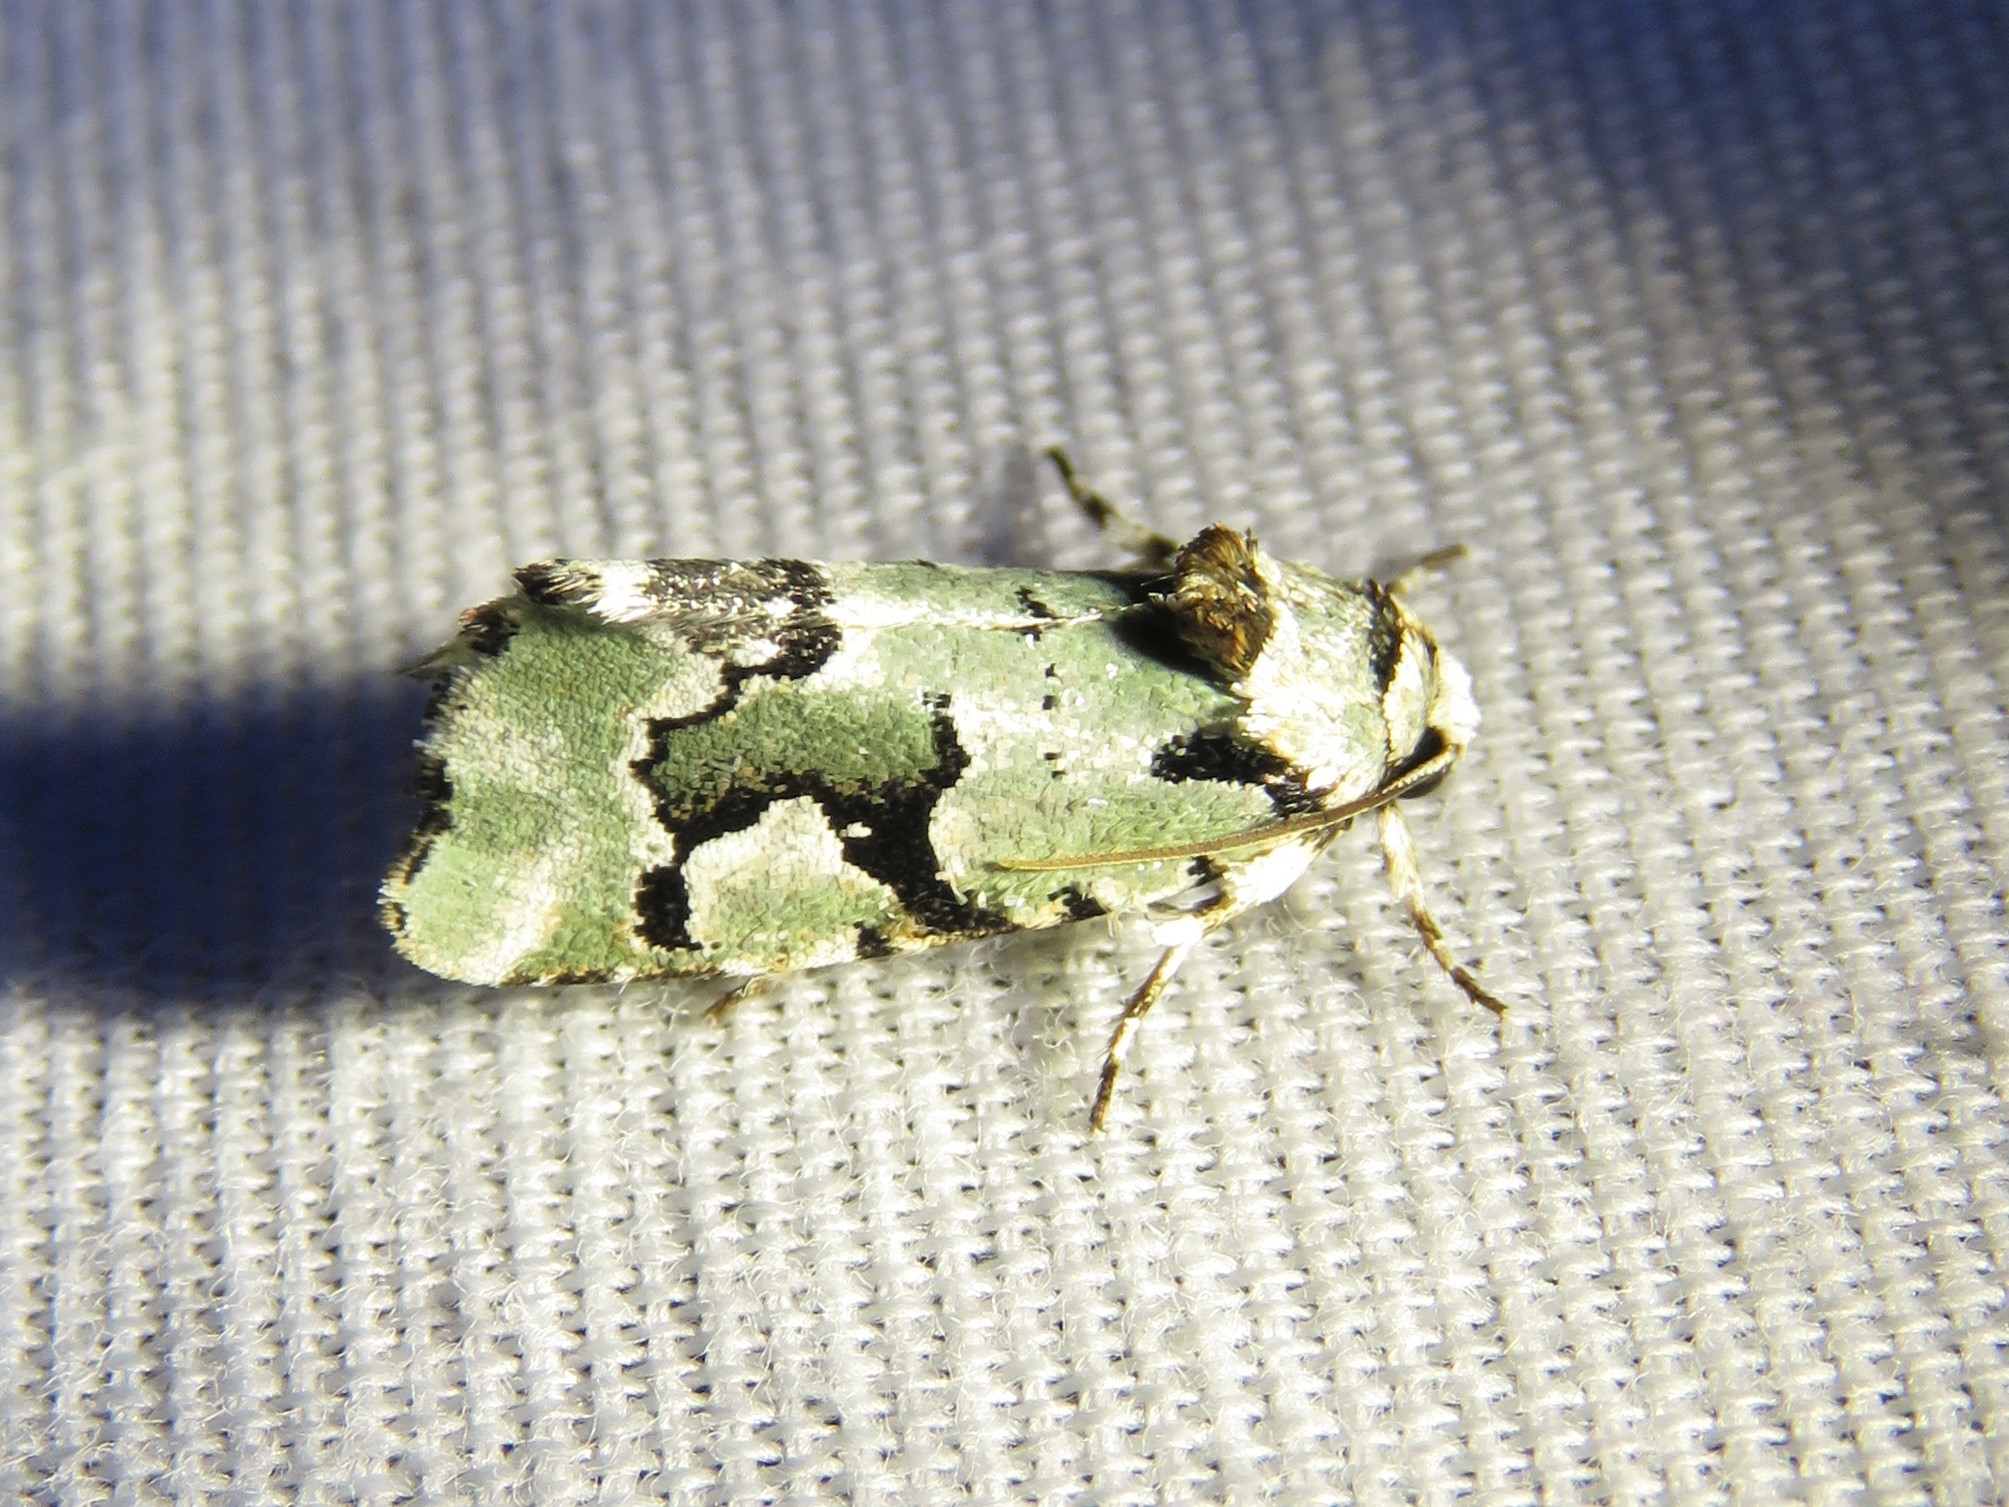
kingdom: Animalia
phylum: Arthropoda
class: Insecta
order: Lepidoptera
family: Noctuidae
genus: Emarginea
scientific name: Emarginea percara
